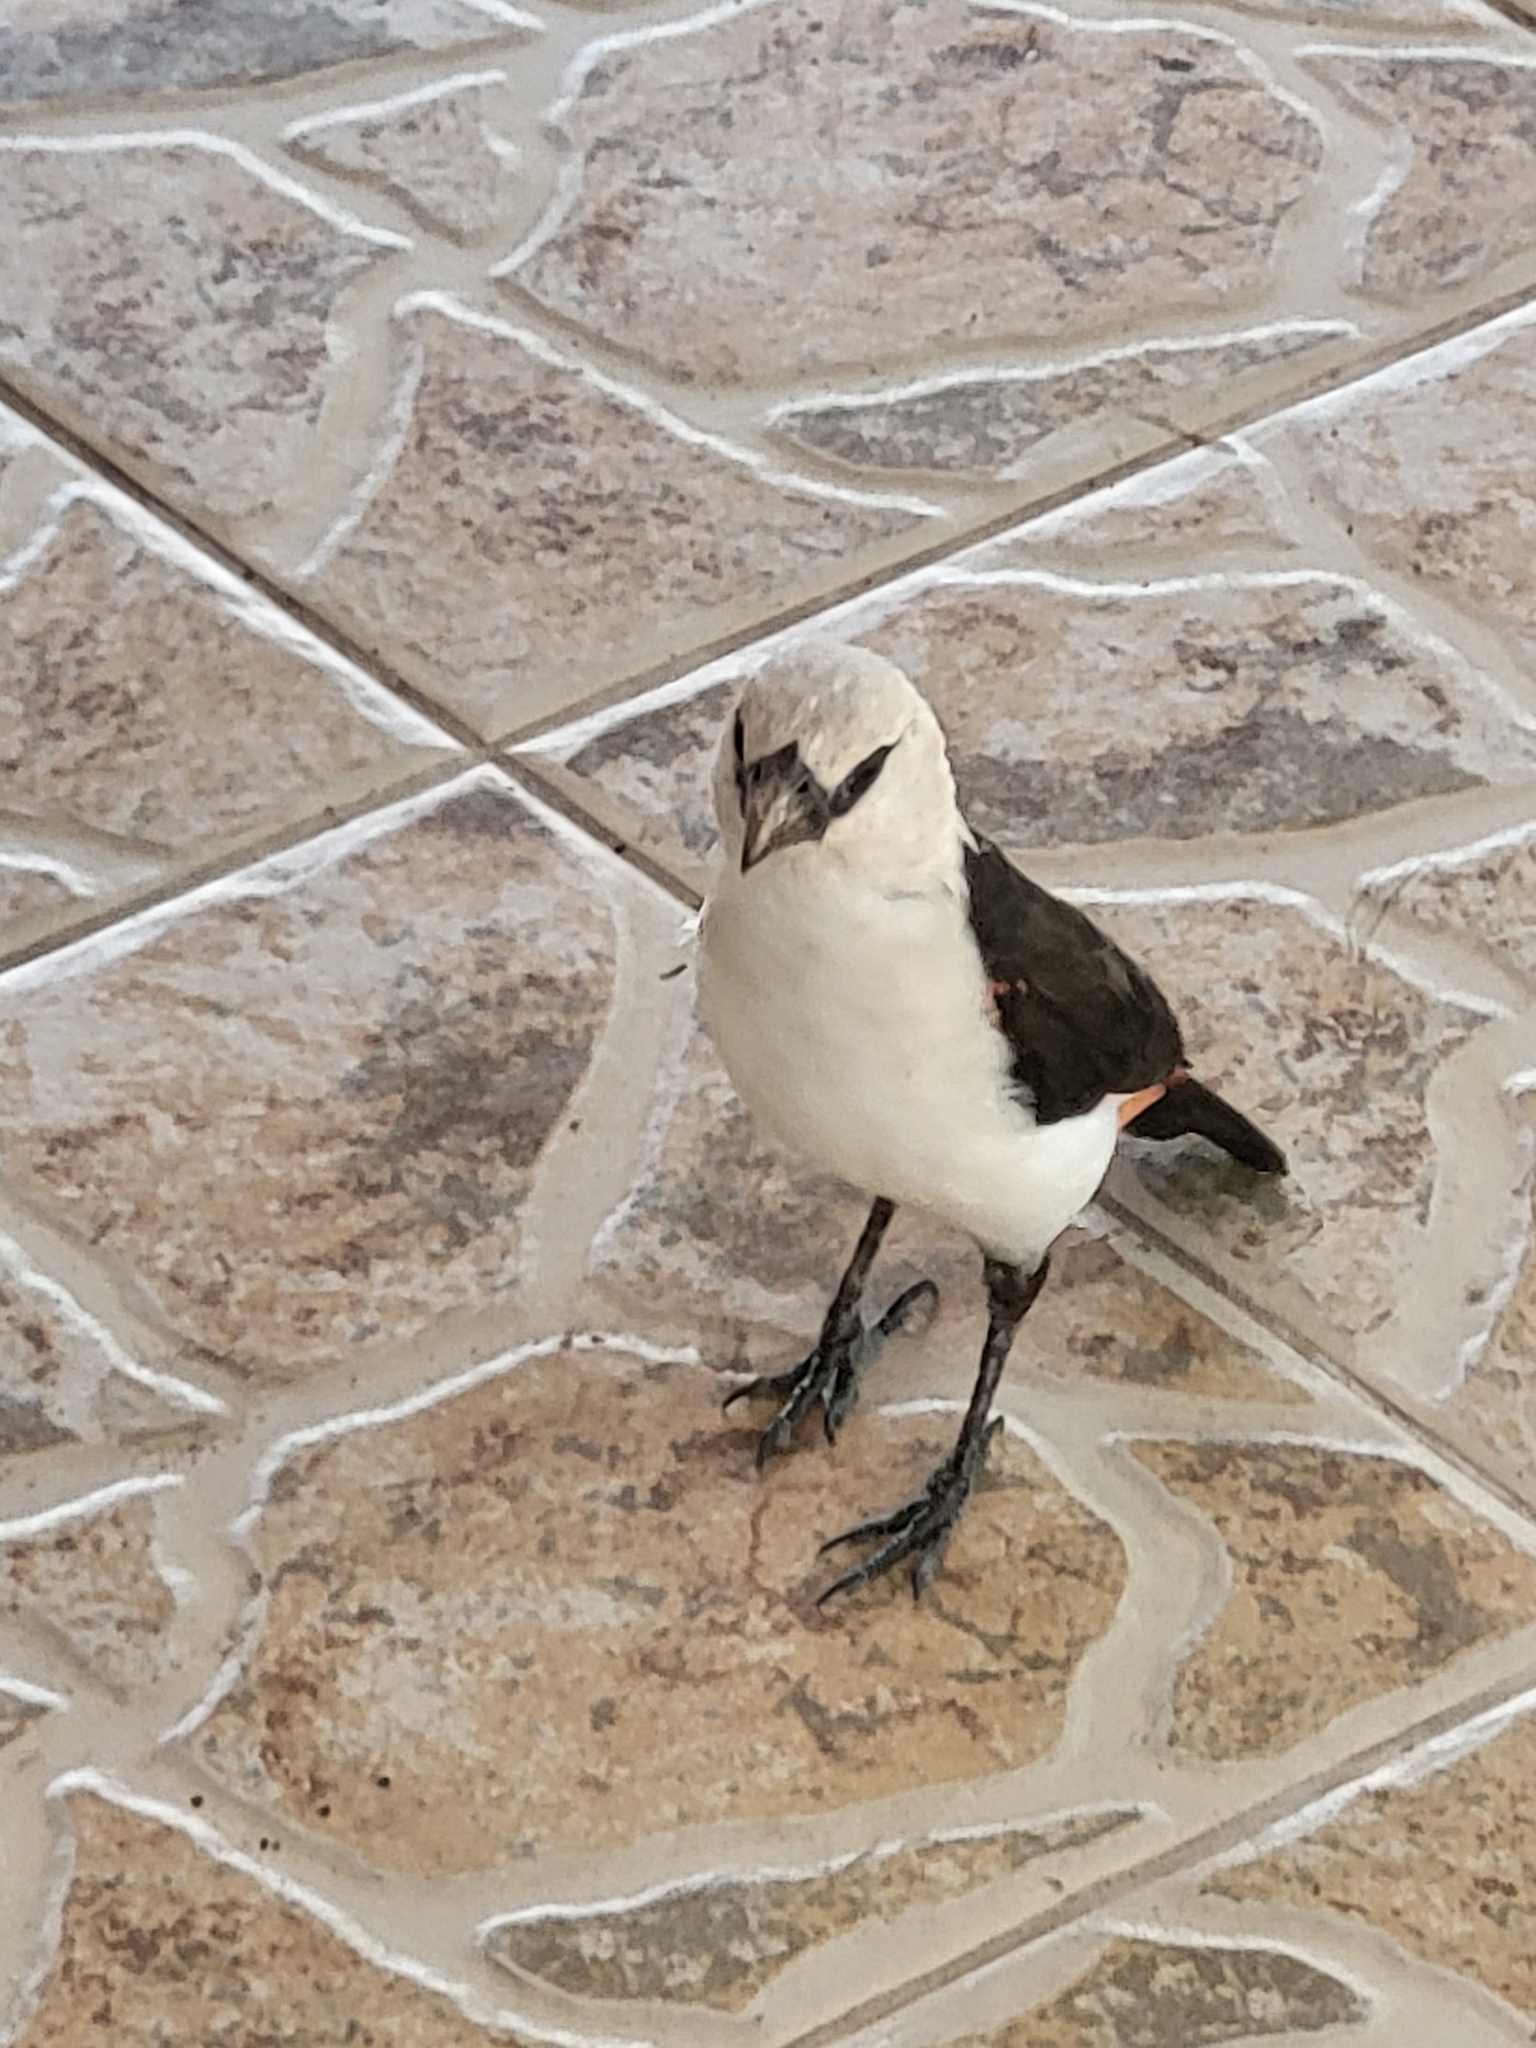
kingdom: Animalia
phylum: Chordata
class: Aves
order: Passeriformes
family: Ploceidae
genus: Dinemellia
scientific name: Dinemellia dinemelli
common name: White-headed buffalo weaver
